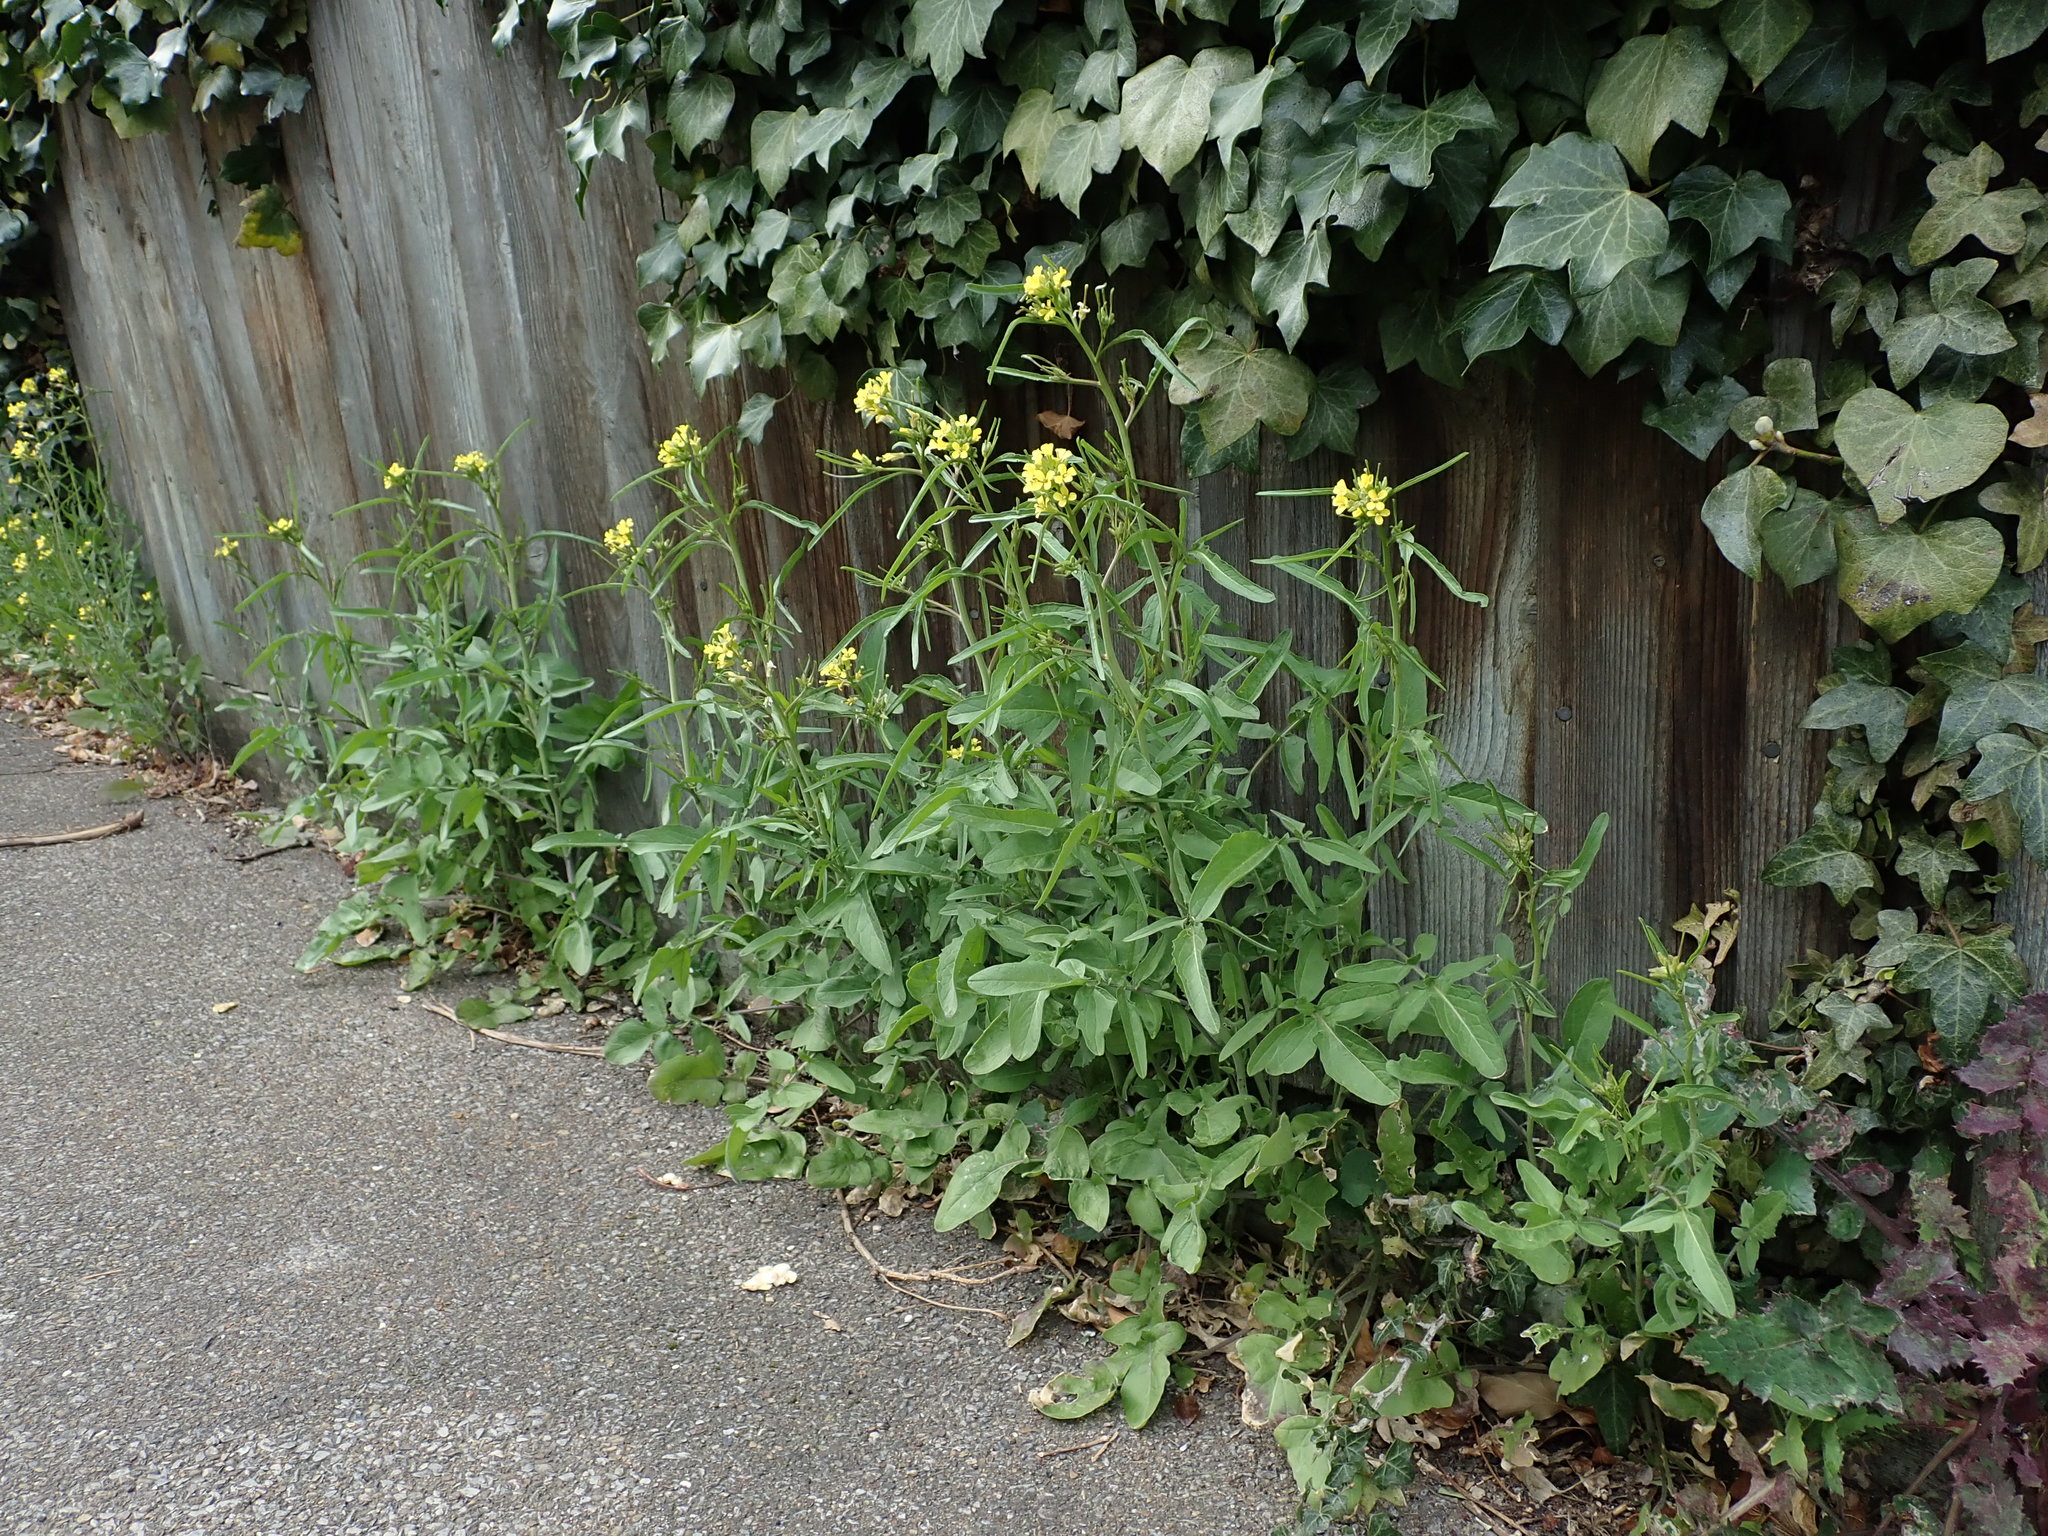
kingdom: Plantae
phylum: Tracheophyta
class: Magnoliopsida
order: Brassicales
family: Brassicaceae
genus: Sisymbrium
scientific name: Sisymbrium orientale
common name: Eastern rocket
